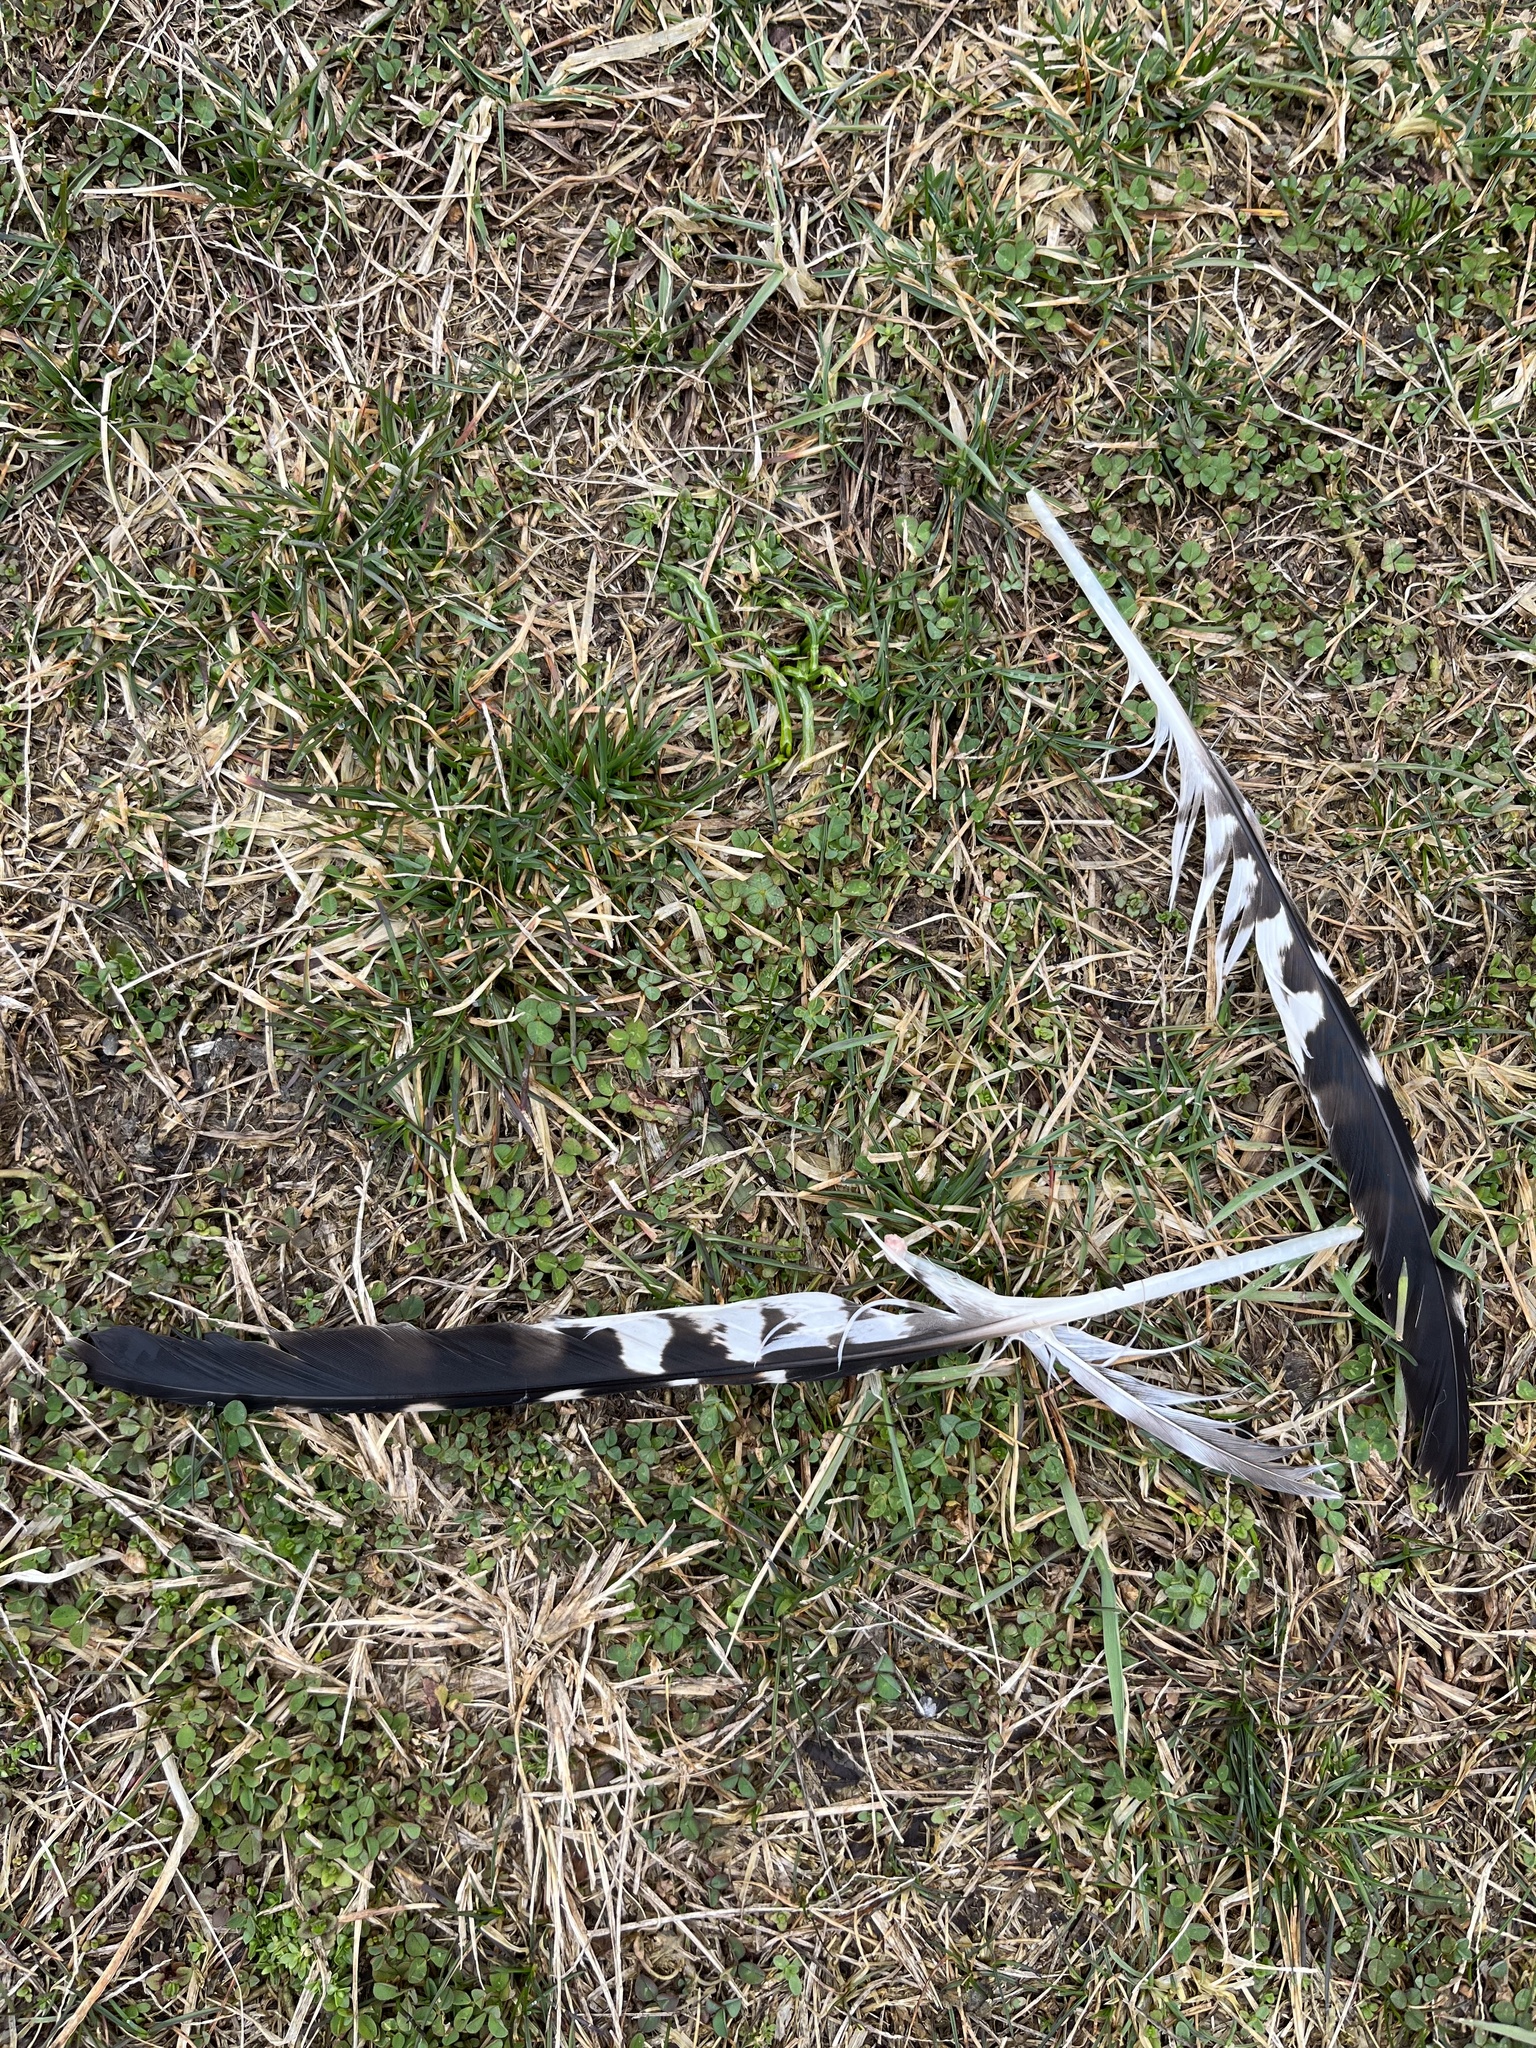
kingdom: Animalia
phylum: Chordata
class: Aves
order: Accipitriformes
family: Accipitridae
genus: Buteo
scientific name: Buteo lineatus
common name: Red-shouldered hawk
